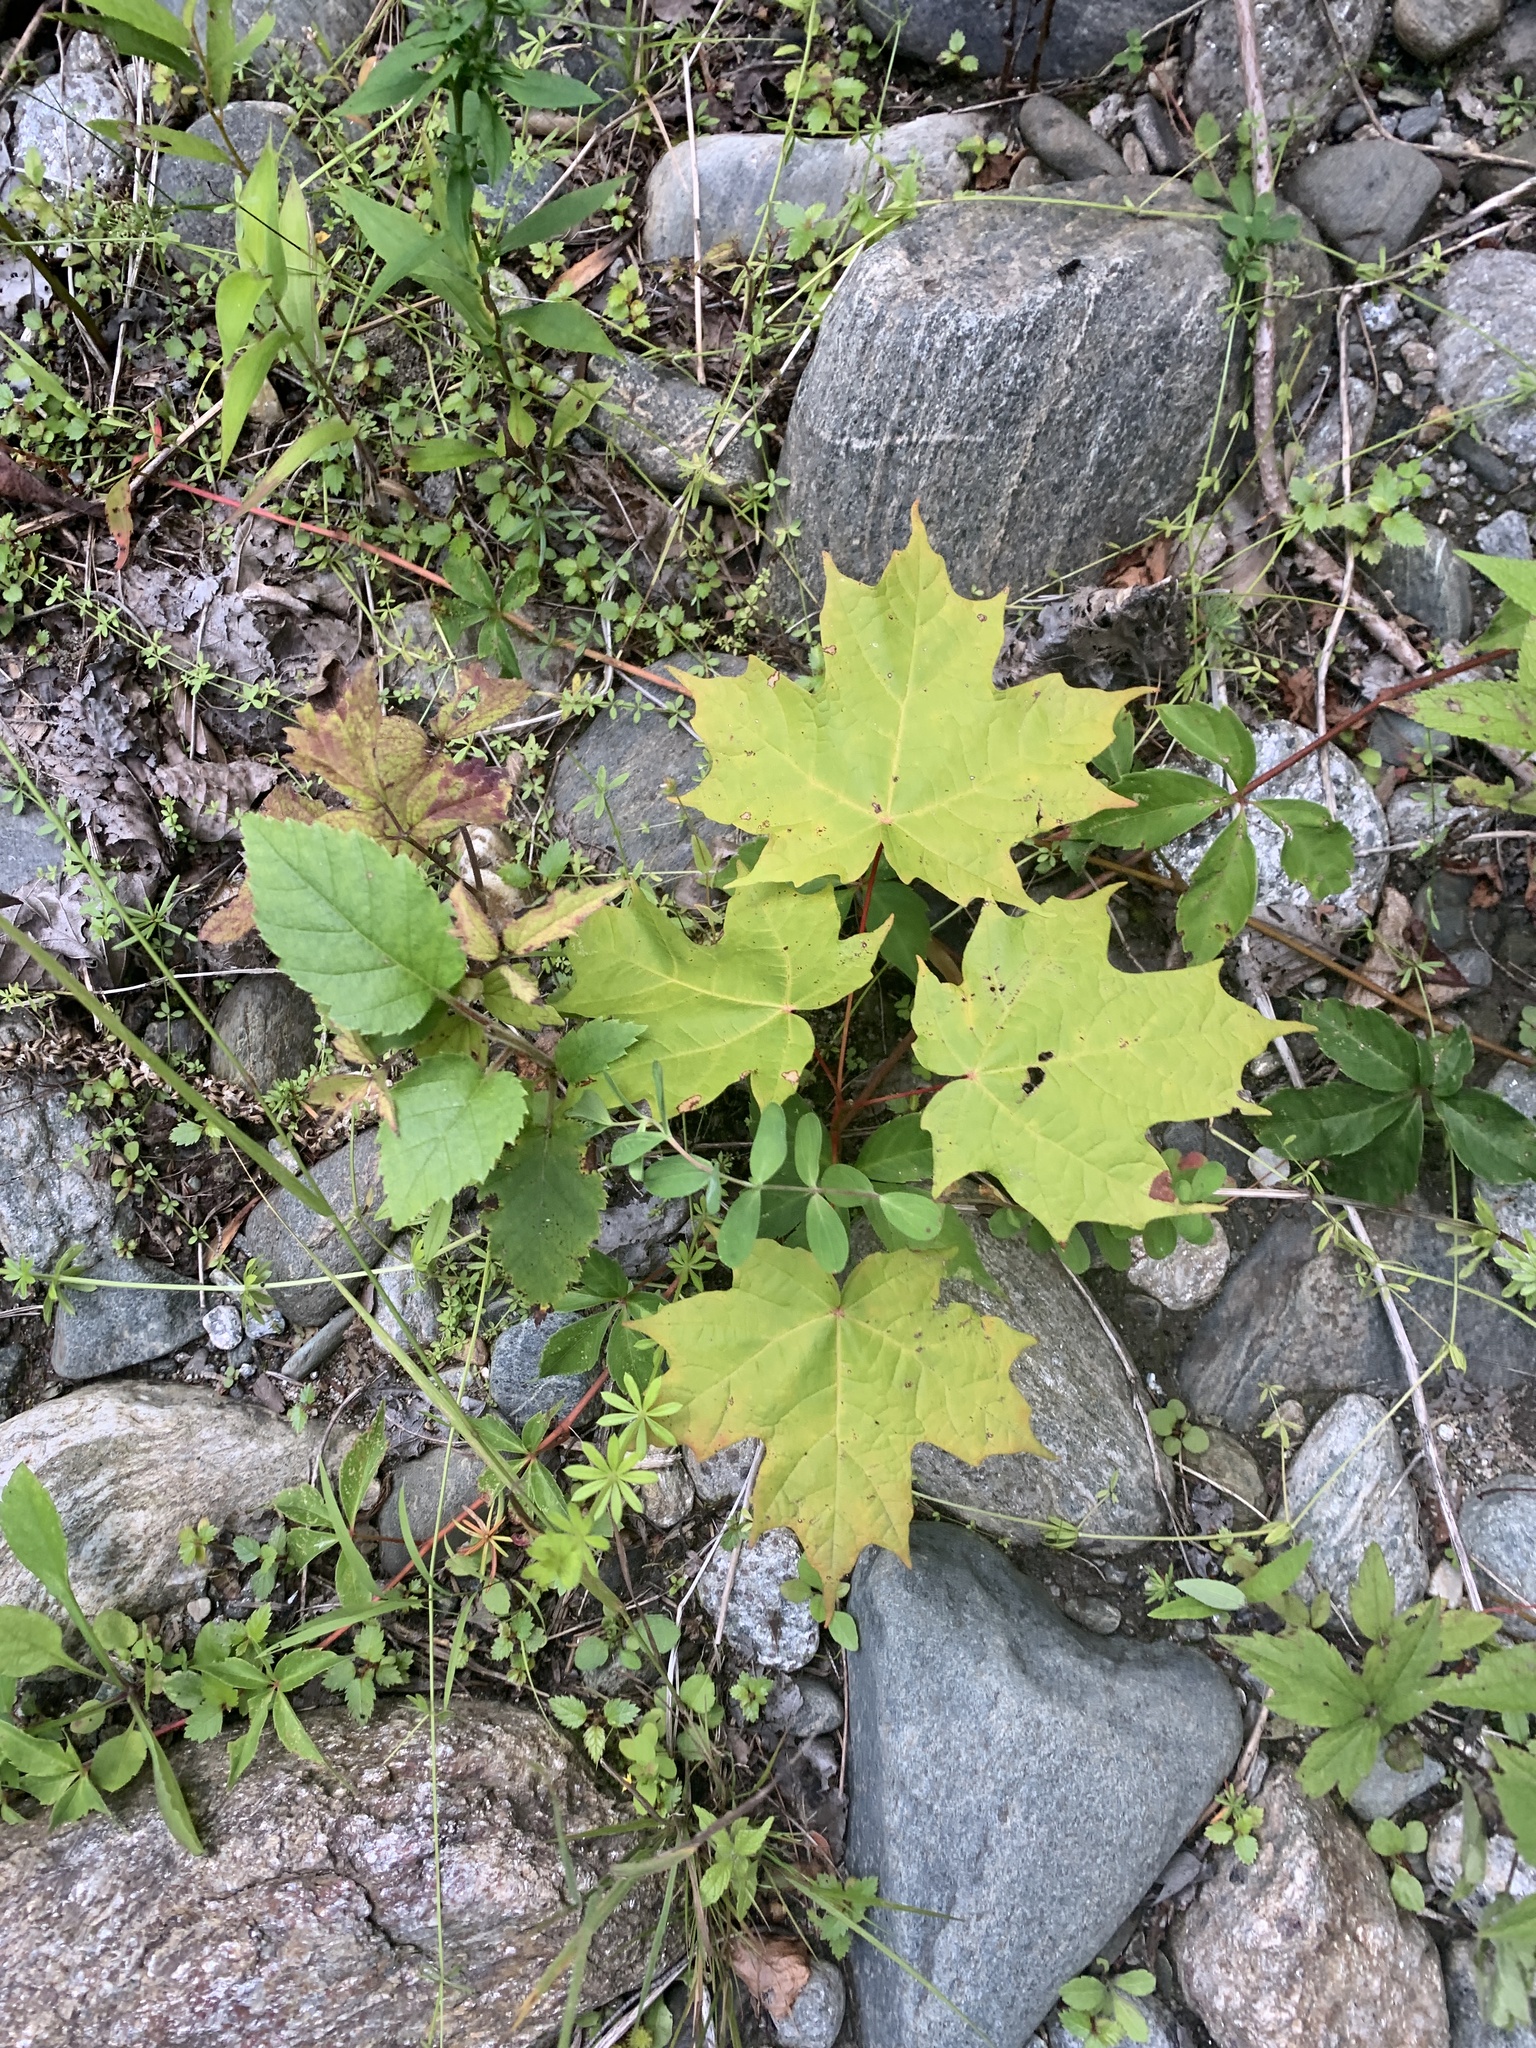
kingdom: Plantae
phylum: Tracheophyta
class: Magnoliopsida
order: Sapindales
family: Sapindaceae
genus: Acer
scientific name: Acer saccharum
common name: Sugar maple
